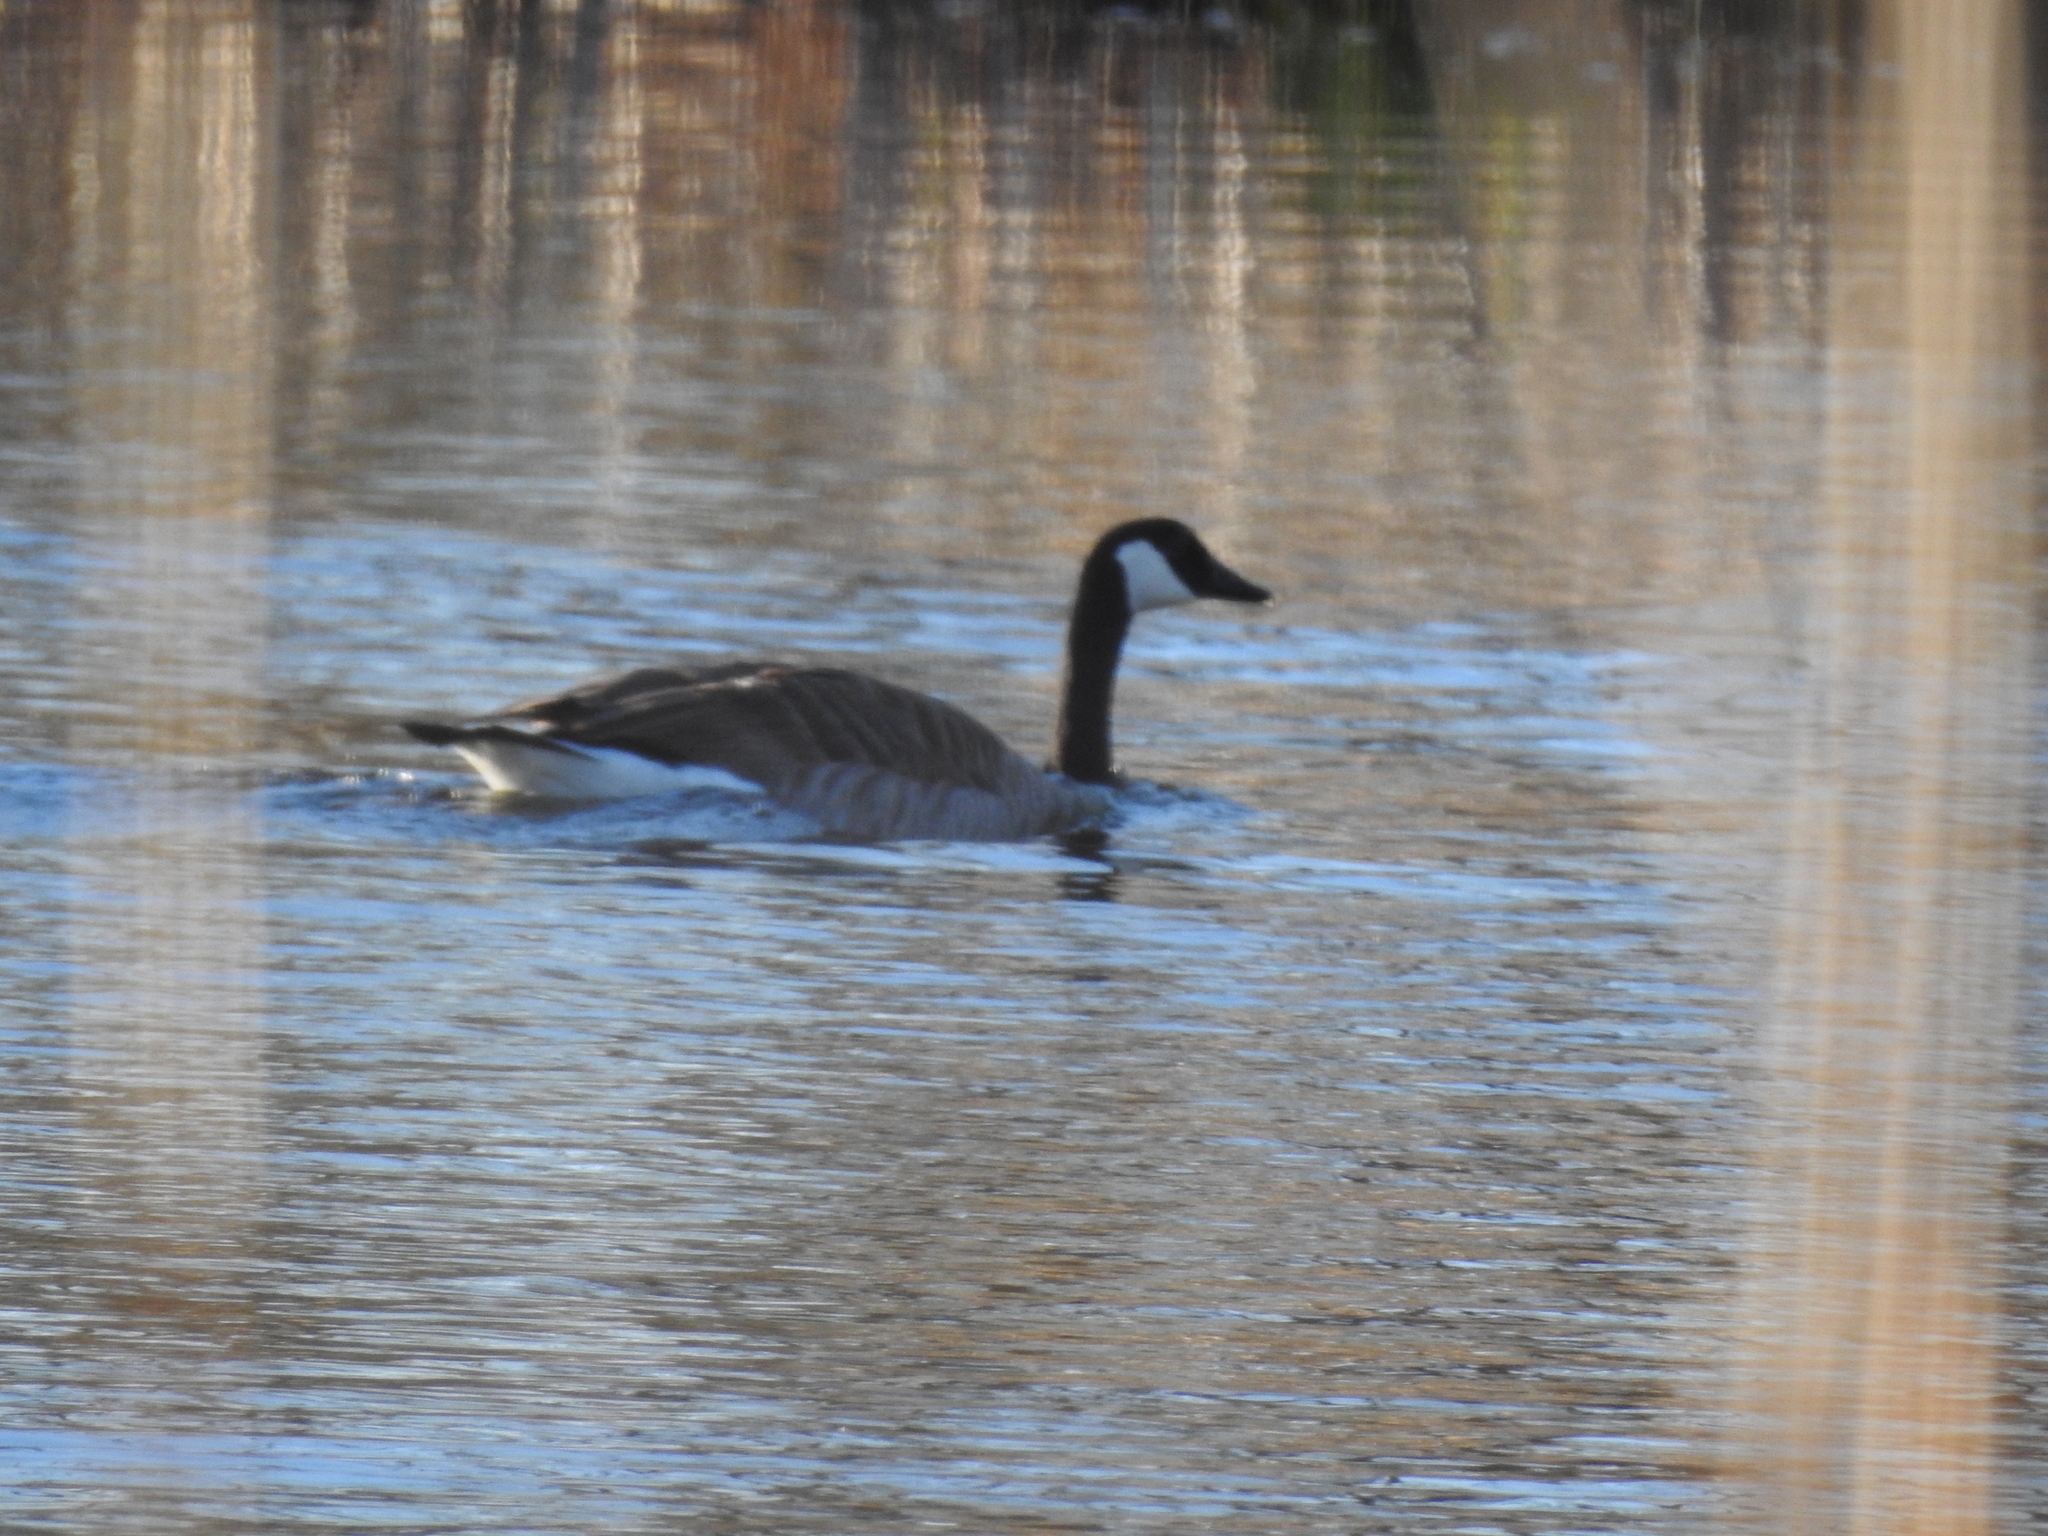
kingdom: Animalia
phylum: Chordata
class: Aves
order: Anseriformes
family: Anatidae
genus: Branta
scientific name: Branta canadensis
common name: Canada goose
